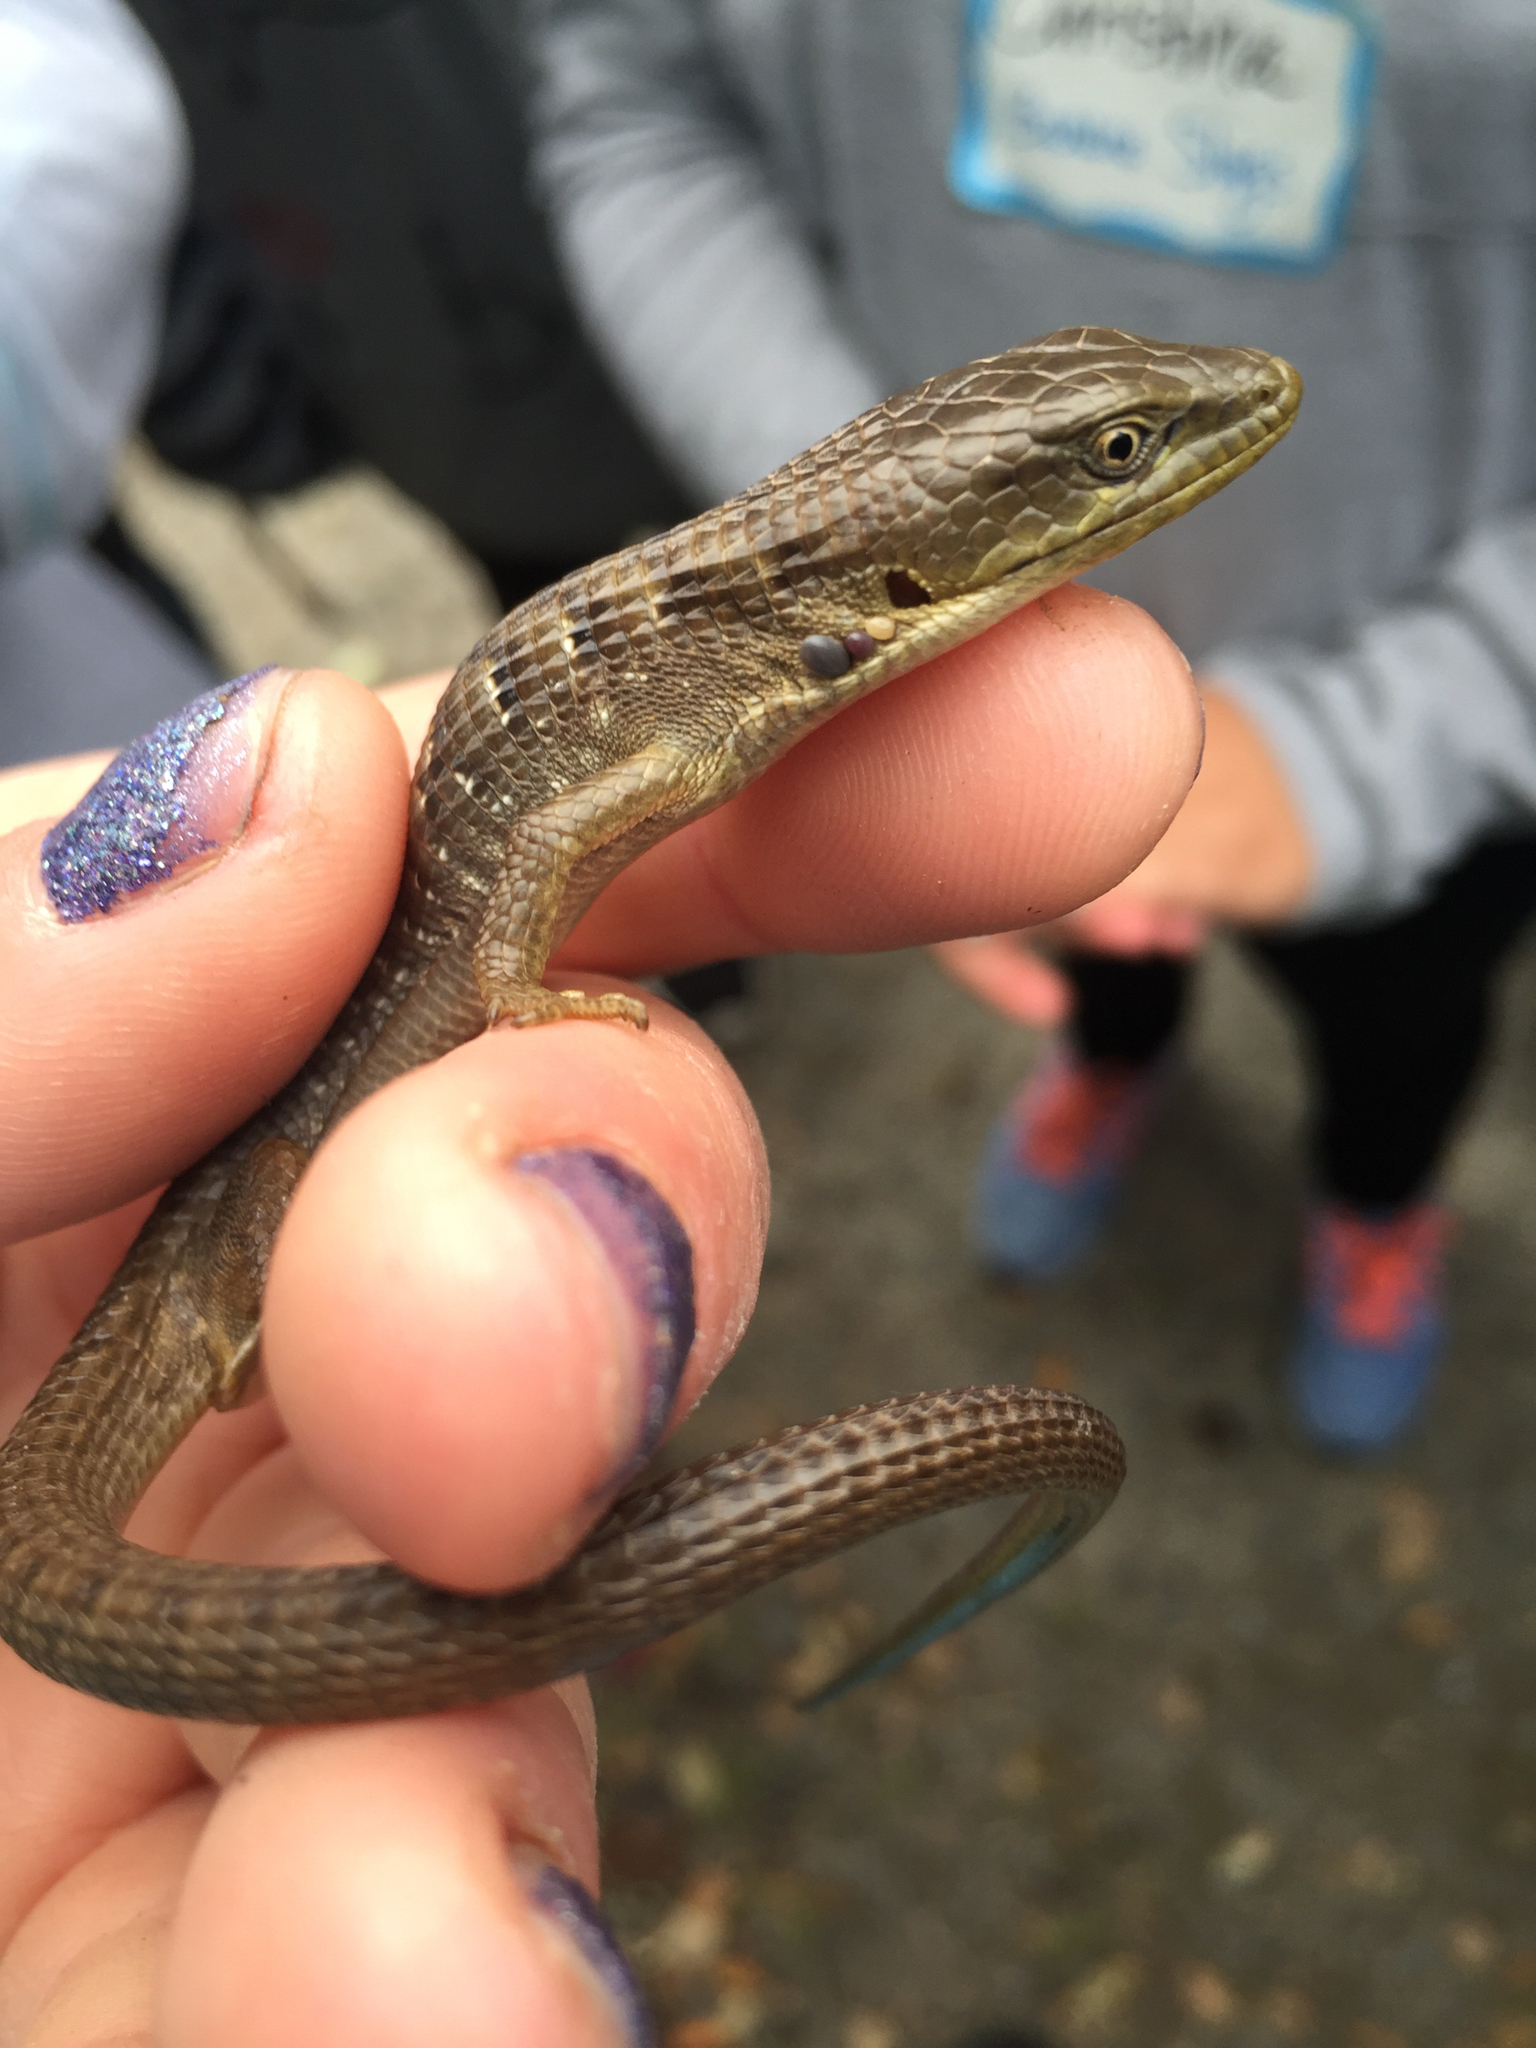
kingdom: Animalia
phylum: Chordata
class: Squamata
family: Anguidae
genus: Elgaria
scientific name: Elgaria multicarinata
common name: Southern alligator lizard
